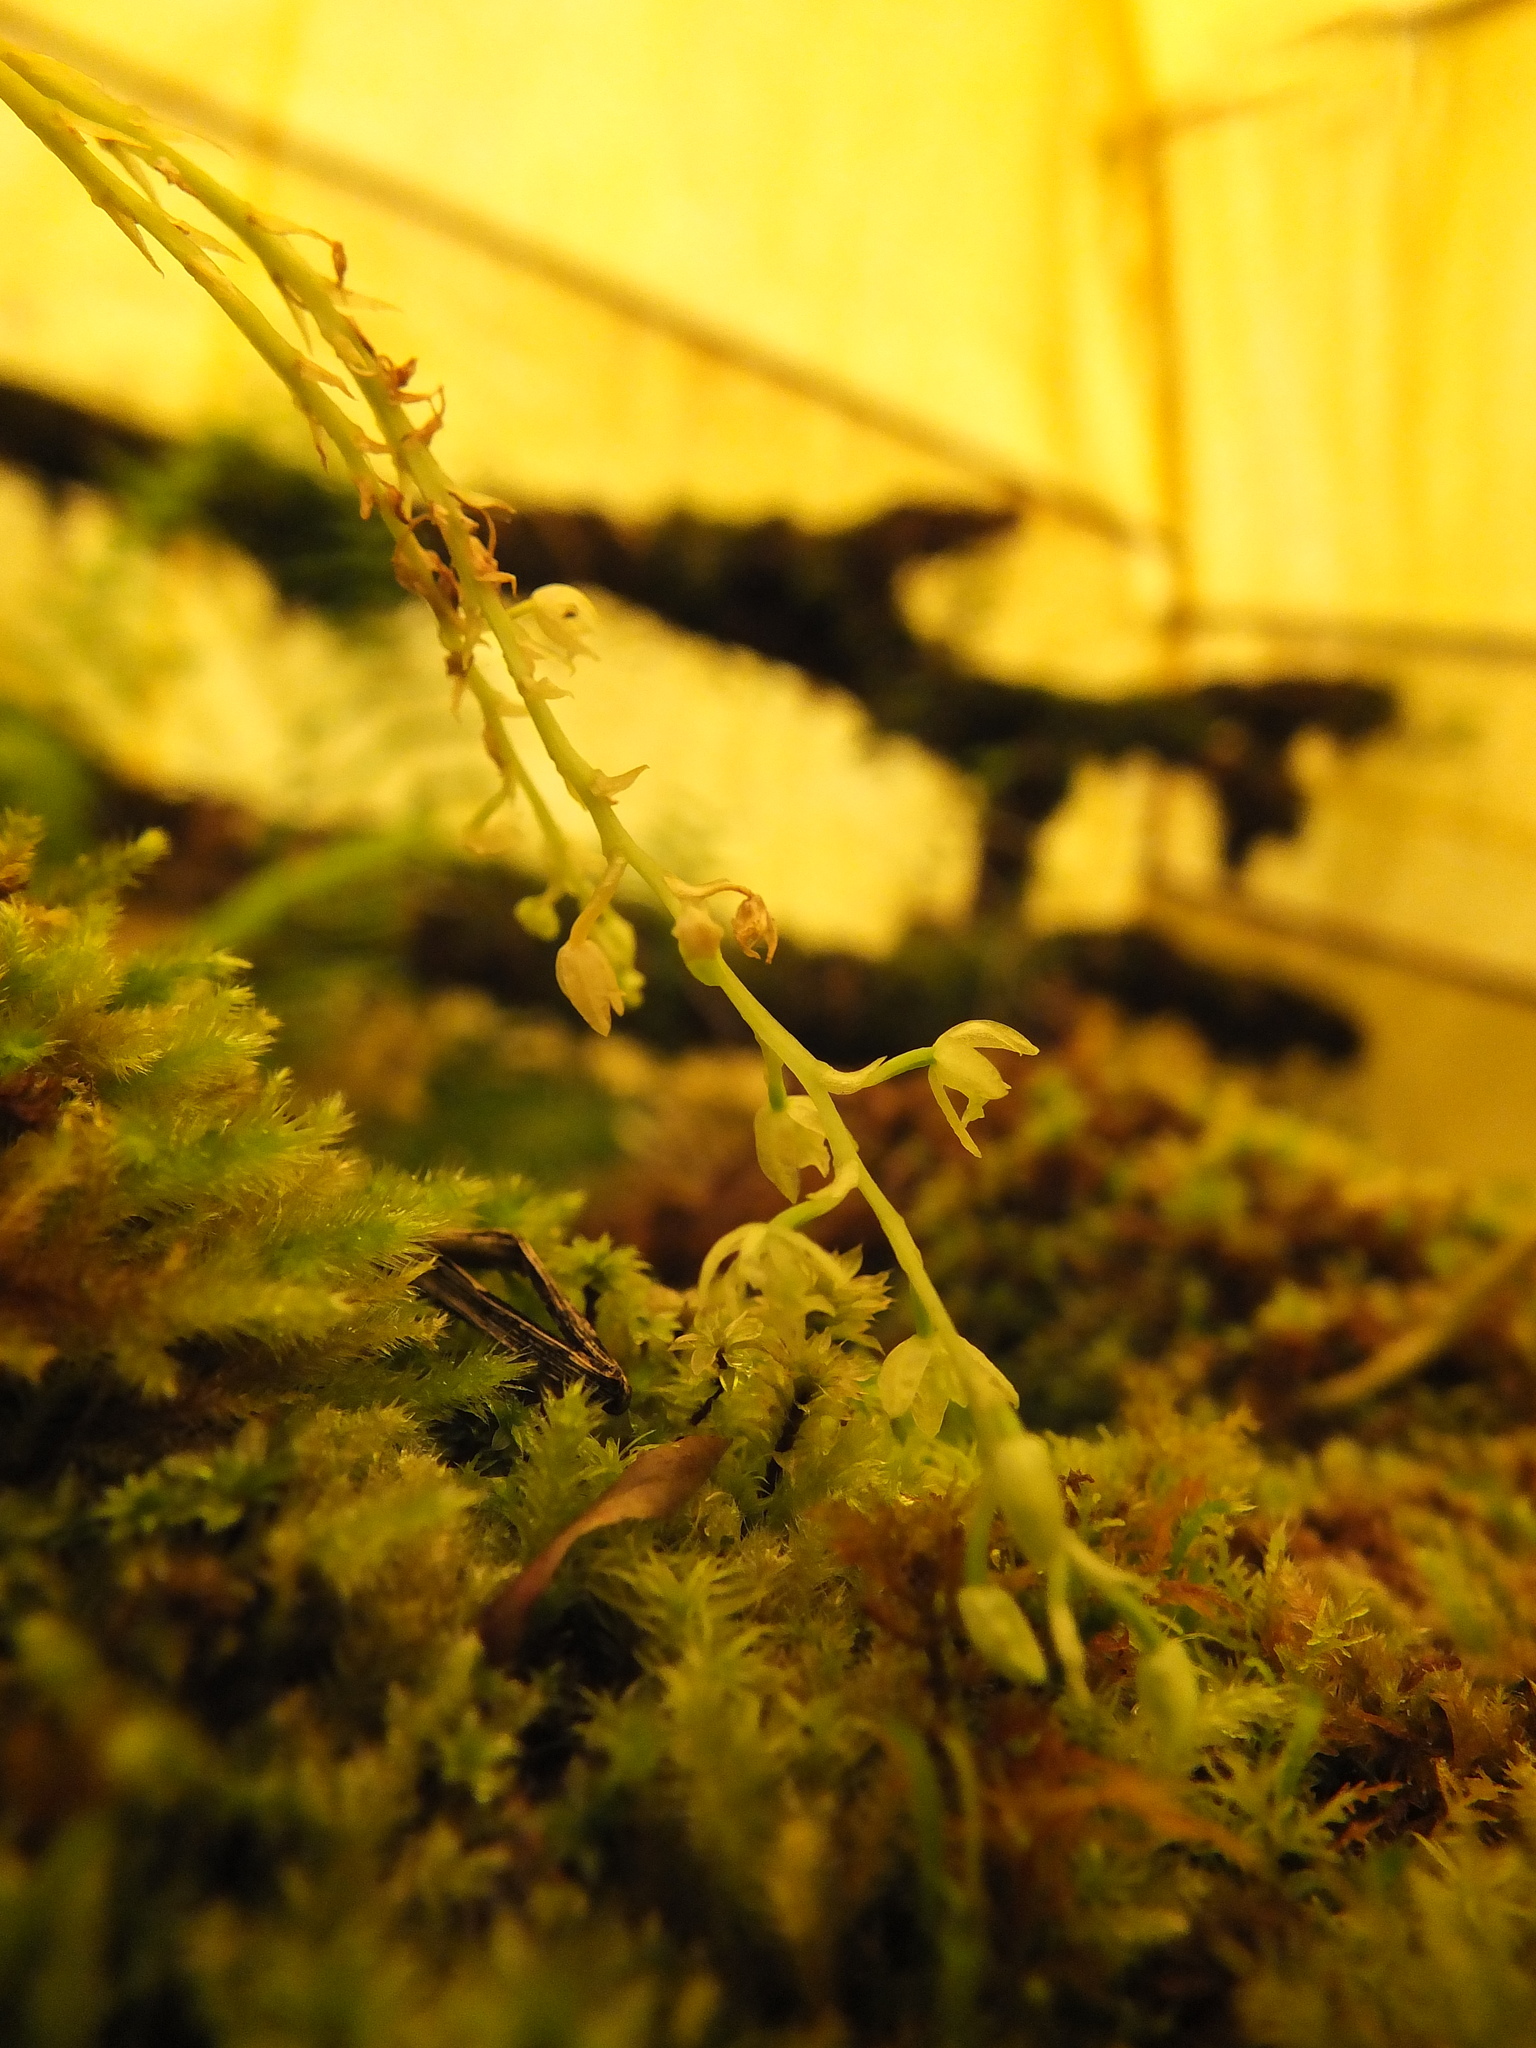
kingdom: Plantae
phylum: Tracheophyta
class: Liliopsida
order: Asparagales
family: Orchidaceae
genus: Liparis
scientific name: Liparis elliptica
